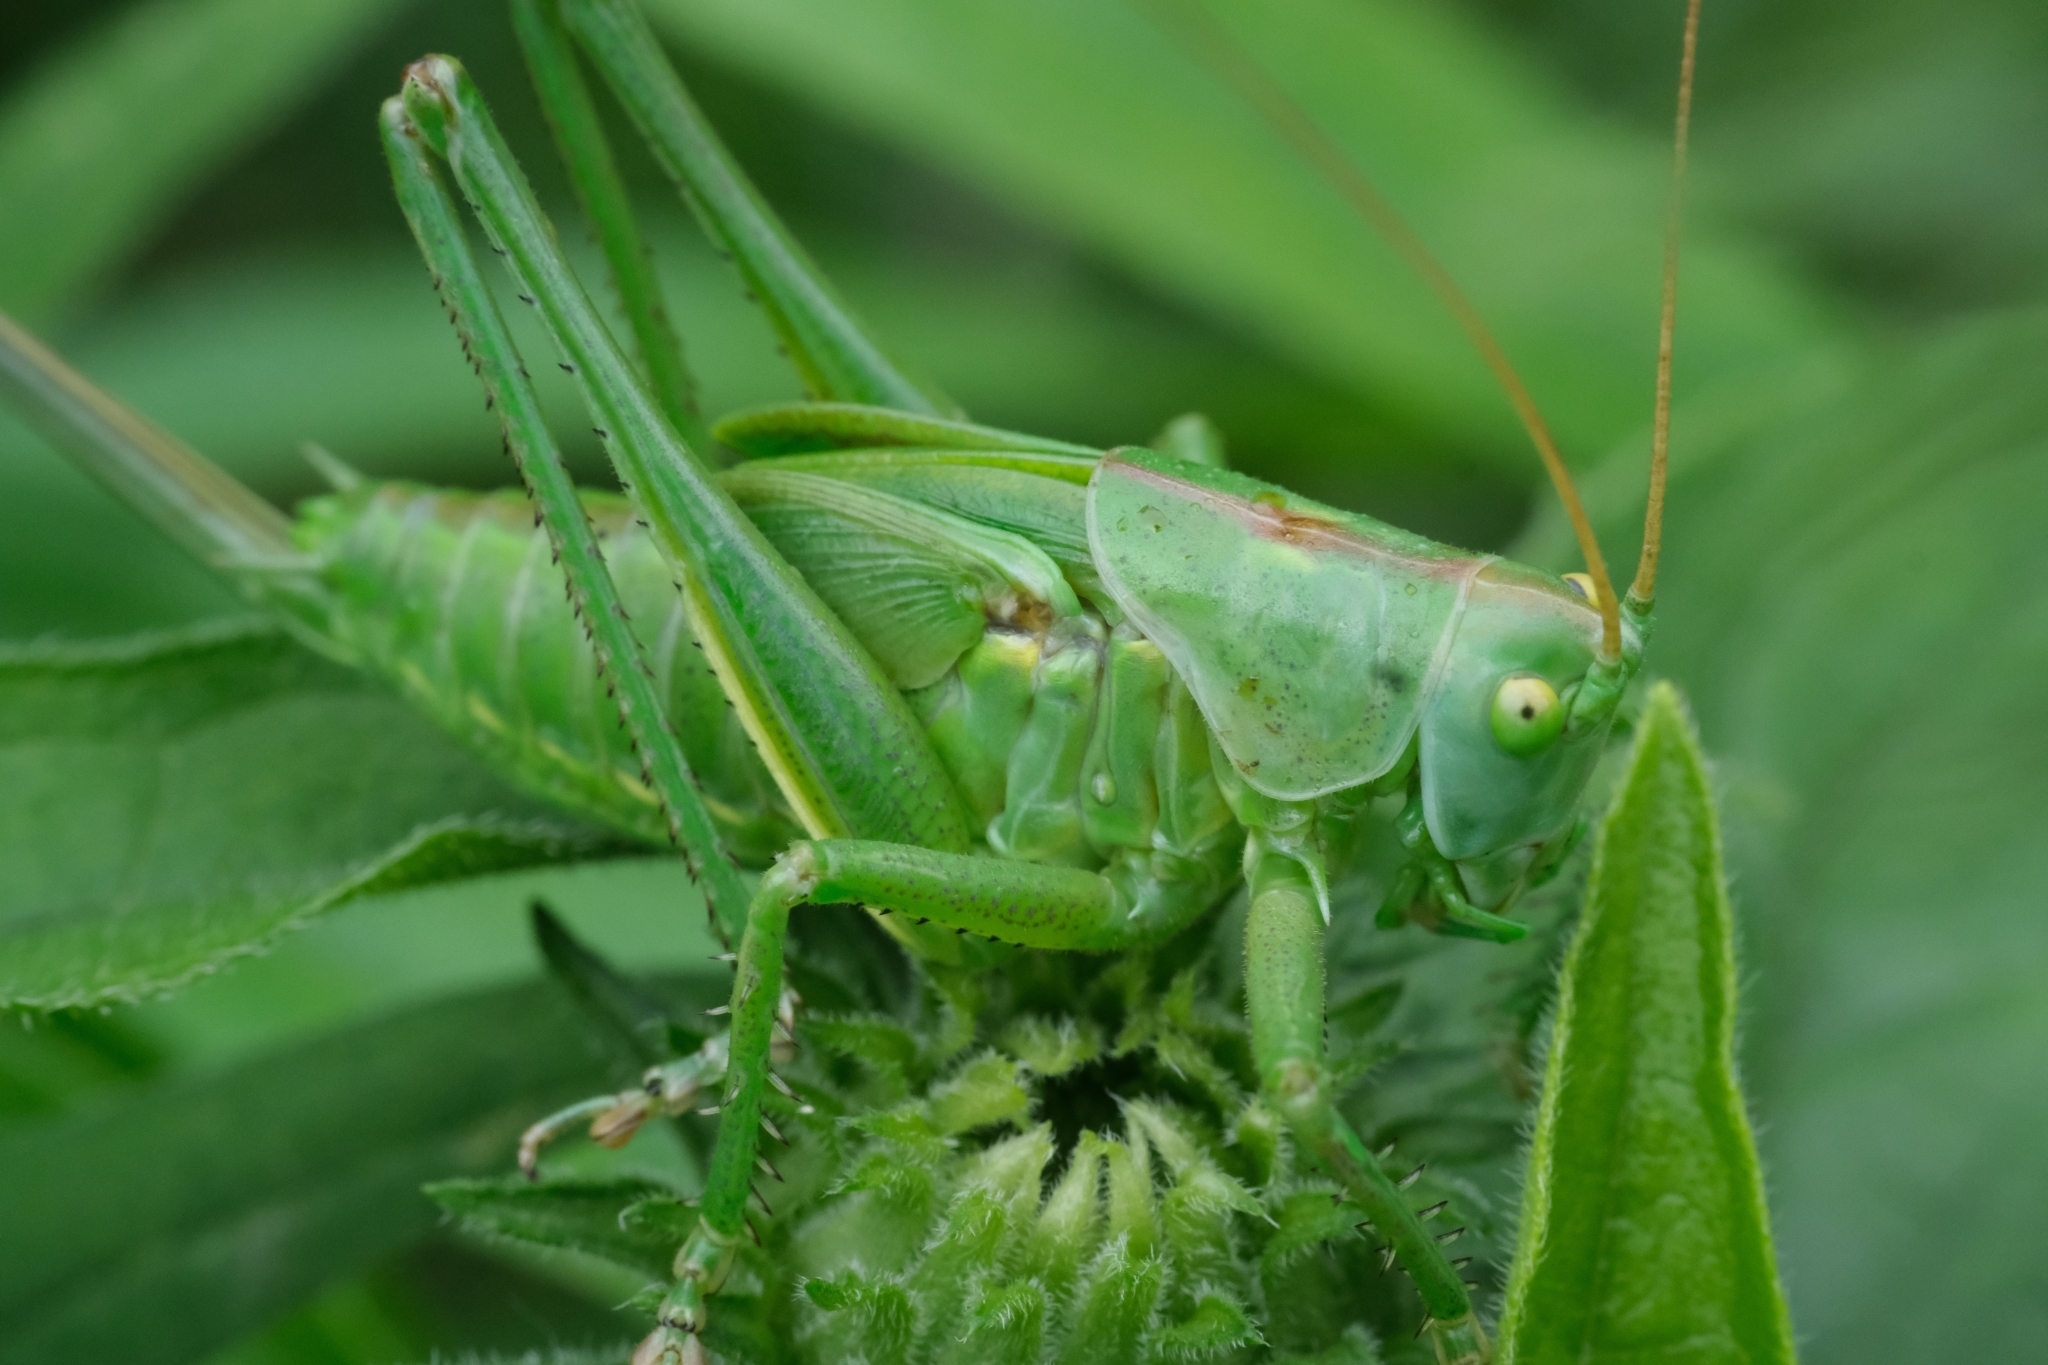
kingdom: Animalia
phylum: Arthropoda
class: Insecta
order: Orthoptera
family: Tettigoniidae
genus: Tettigonia
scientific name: Tettigonia viridissima
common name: Great green bush-cricket
